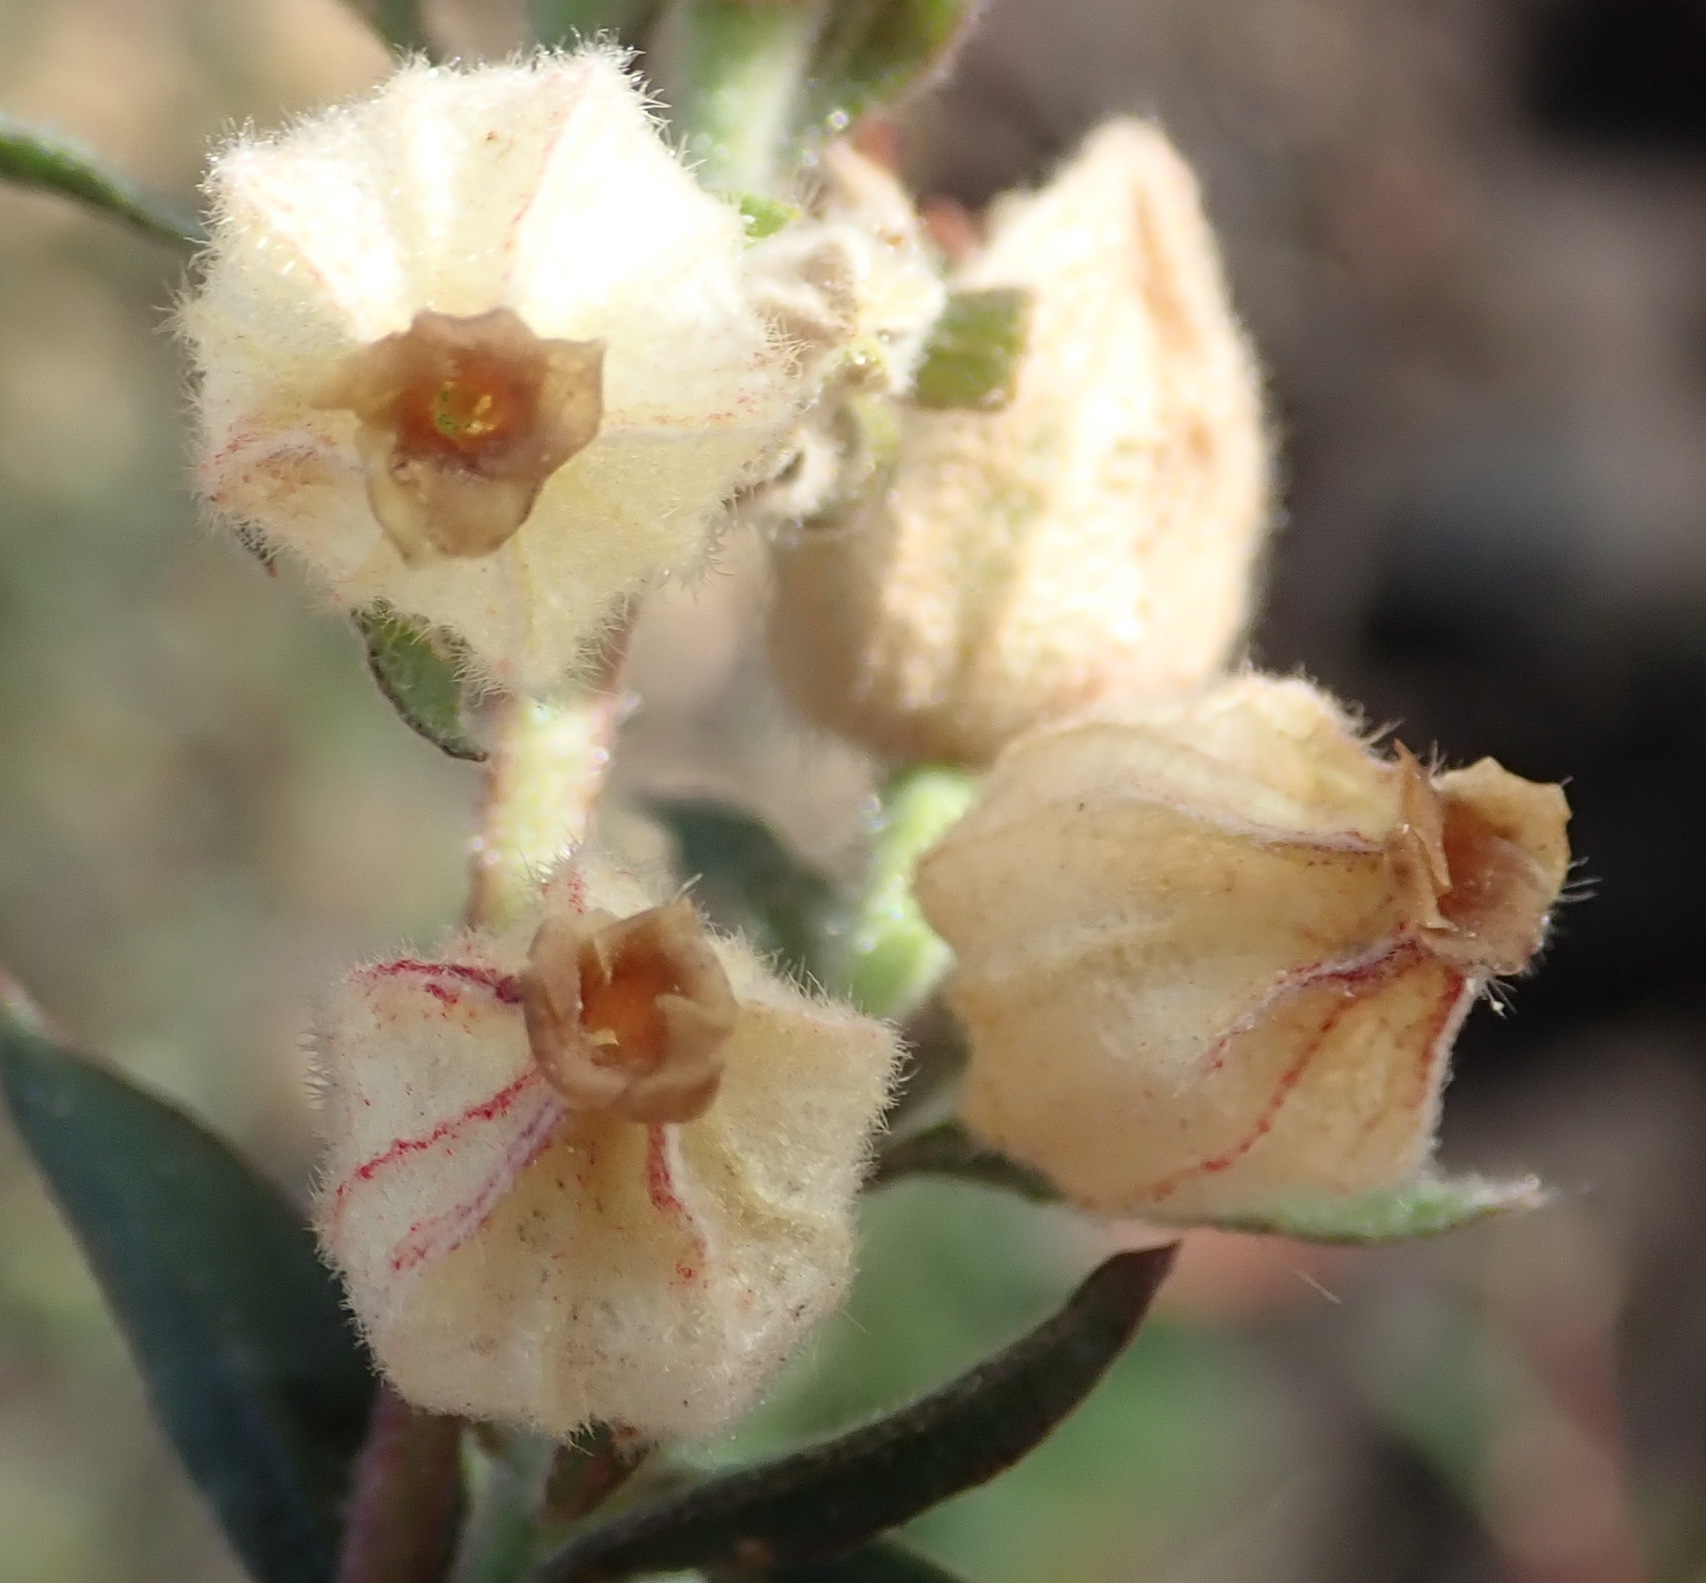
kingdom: Plantae
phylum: Tracheophyta
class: Magnoliopsida
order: Malvales
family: Malvaceae
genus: Hermannia
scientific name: Hermannia hyssopifolia
